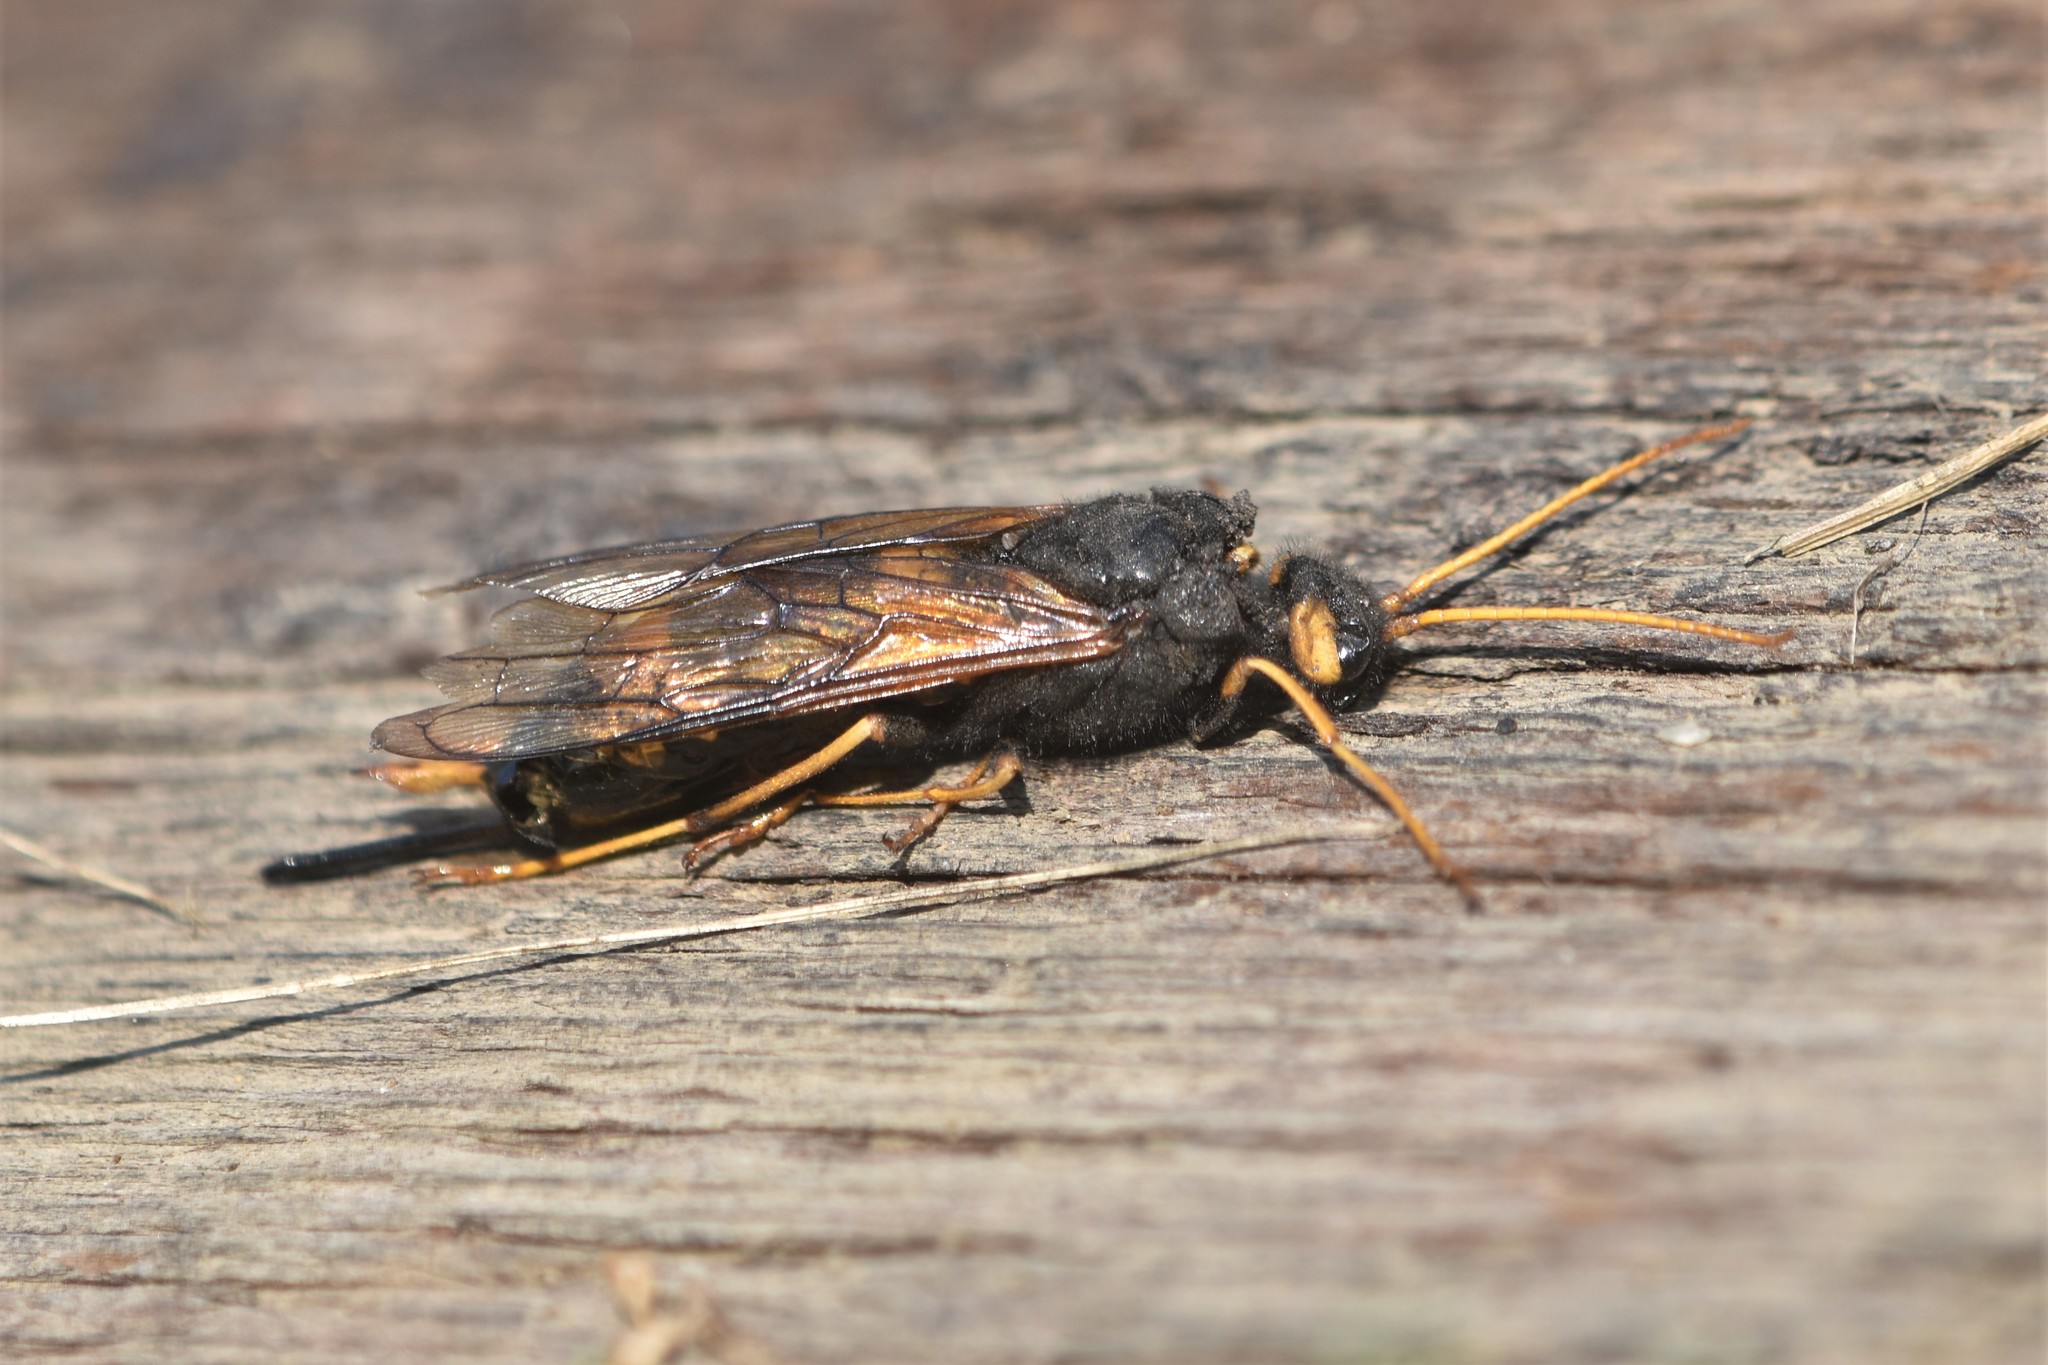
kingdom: Animalia
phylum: Arthropoda
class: Insecta
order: Hymenoptera
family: Siricidae
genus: Urocerus
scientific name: Urocerus flavicornis
